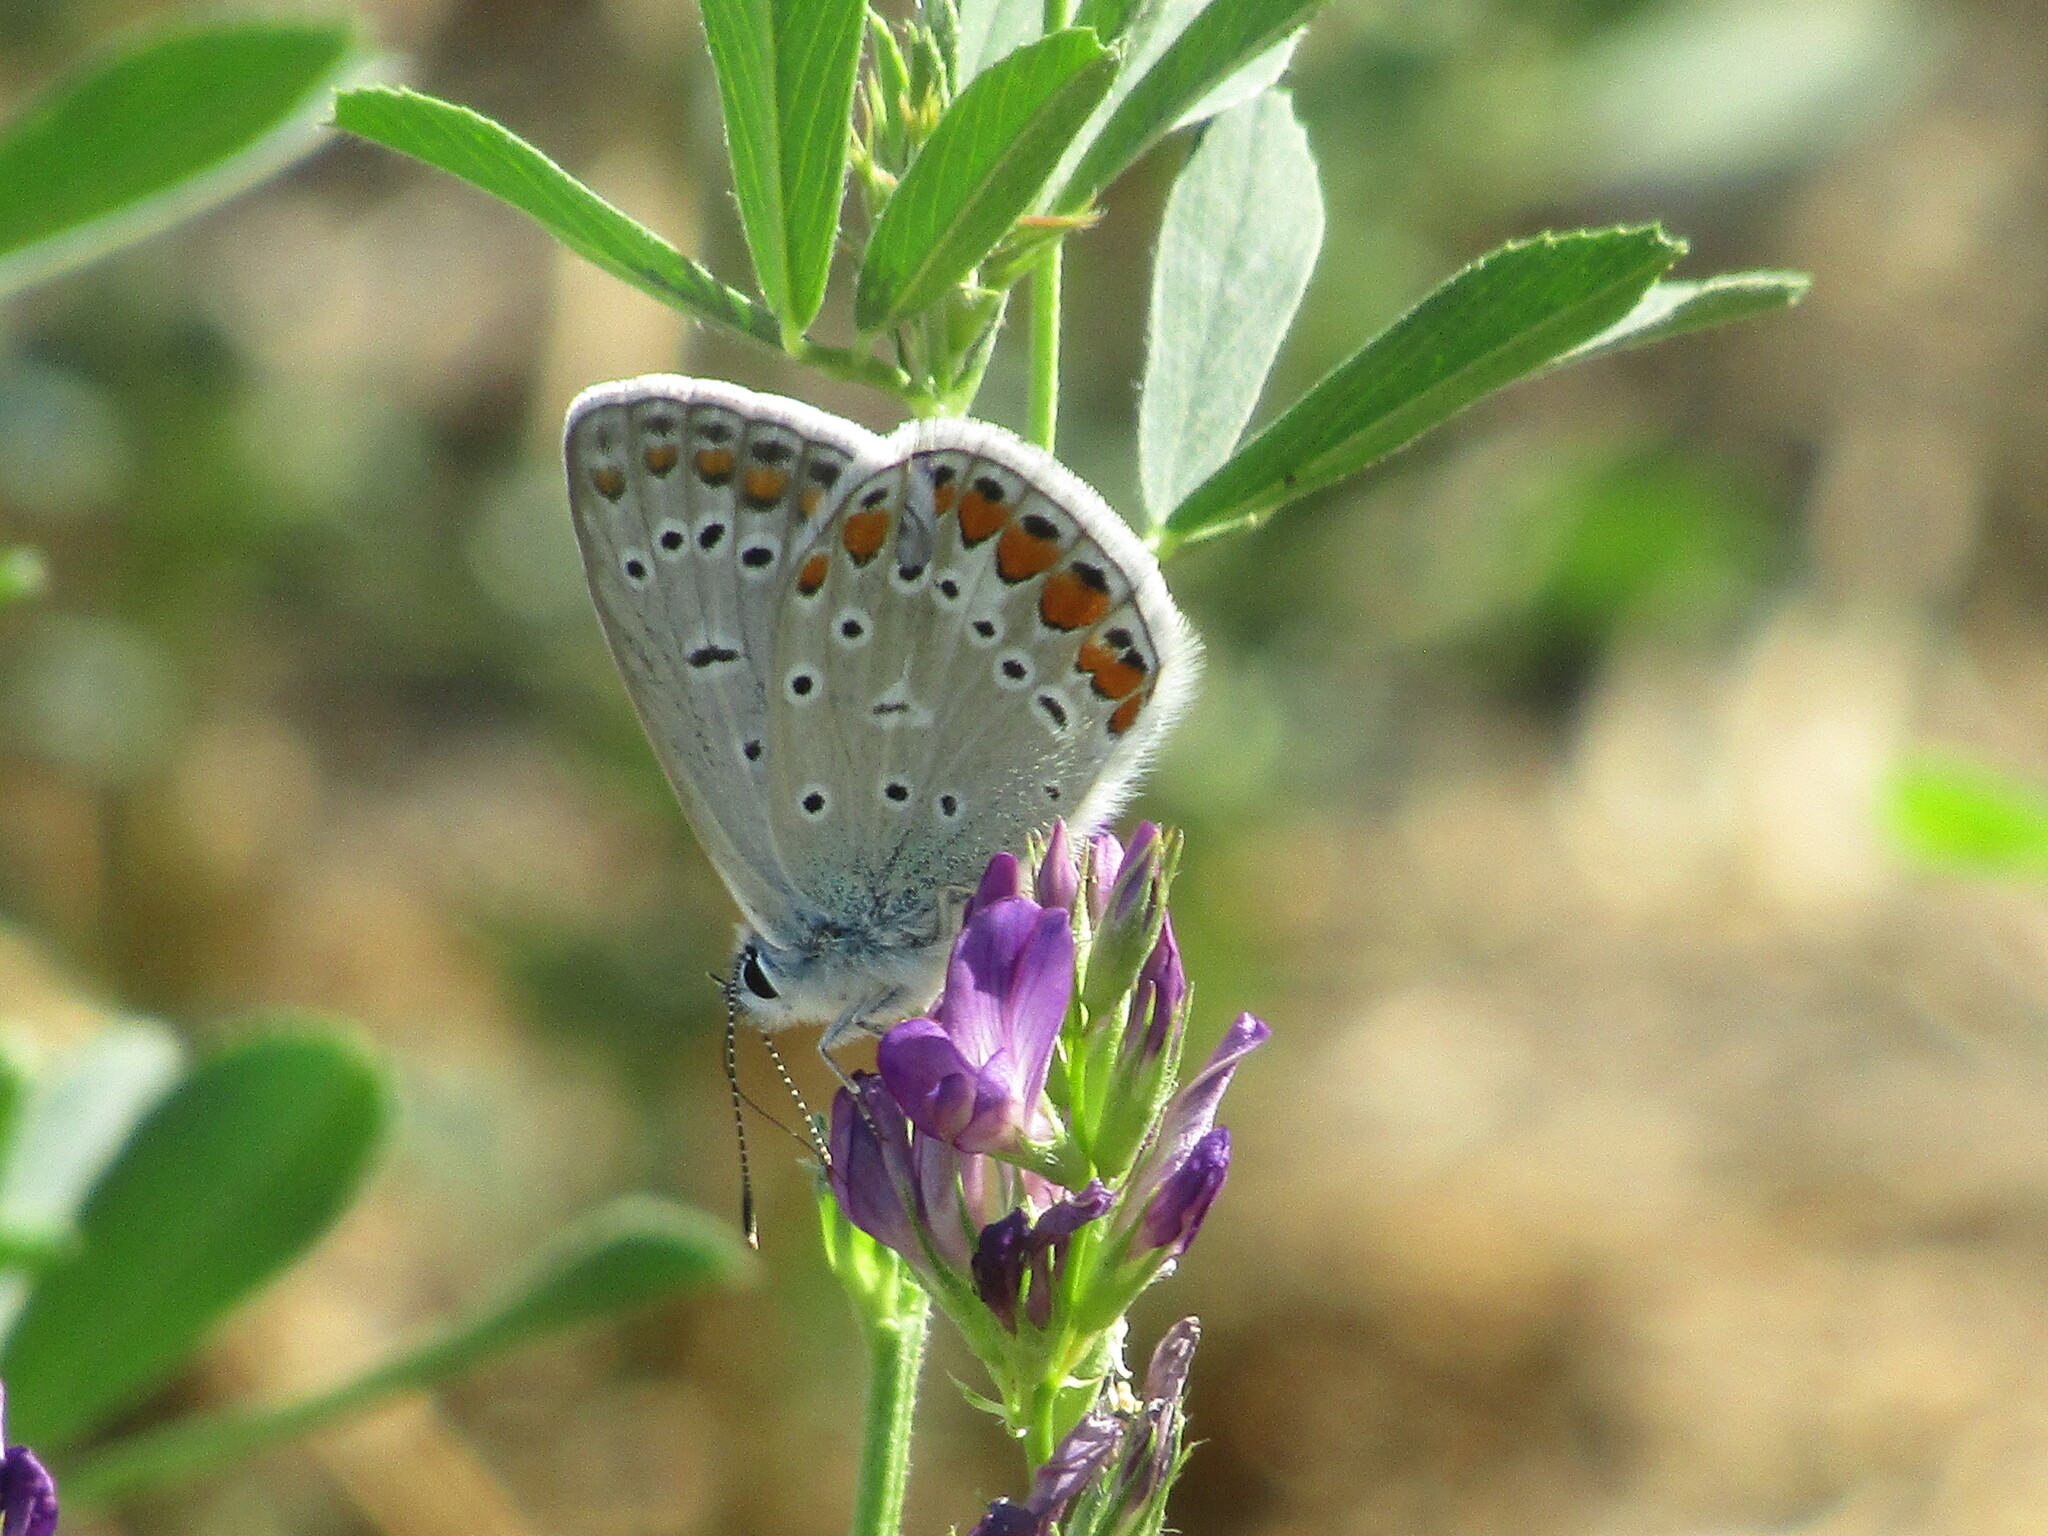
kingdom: Animalia
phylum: Arthropoda
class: Insecta
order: Lepidoptera
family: Lycaenidae
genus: Polyommatus
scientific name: Polyommatus icarus
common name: Common blue
